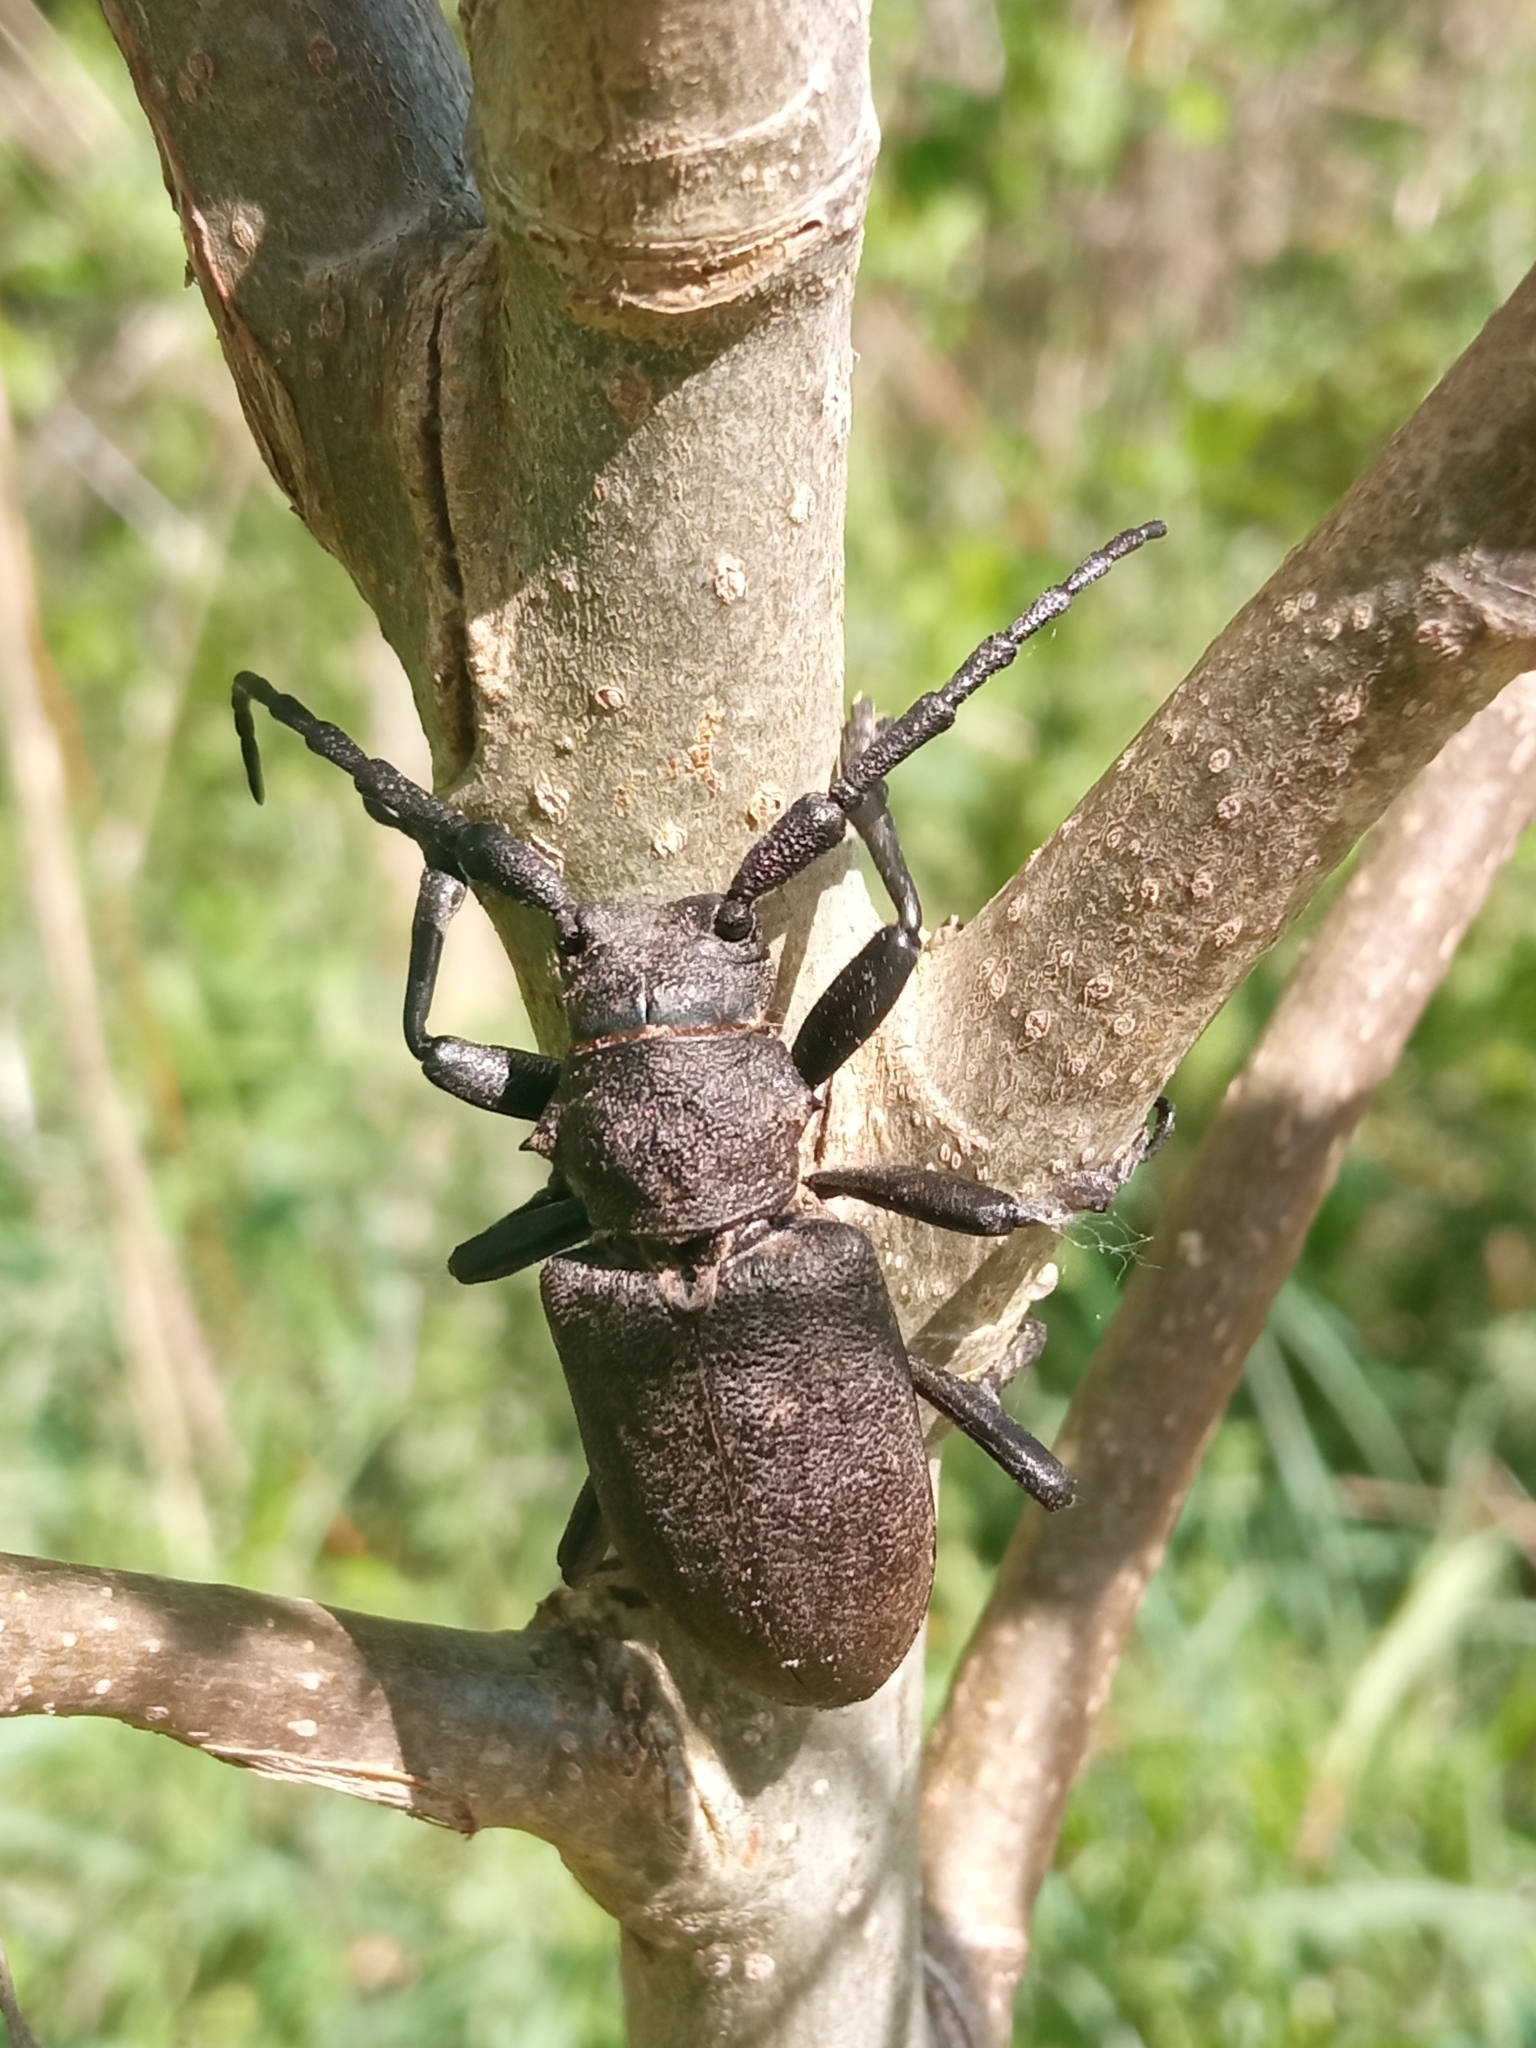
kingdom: Animalia
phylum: Arthropoda
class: Insecta
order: Coleoptera
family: Cerambycidae
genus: Lamia
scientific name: Lamia textor
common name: Weaver beetle
